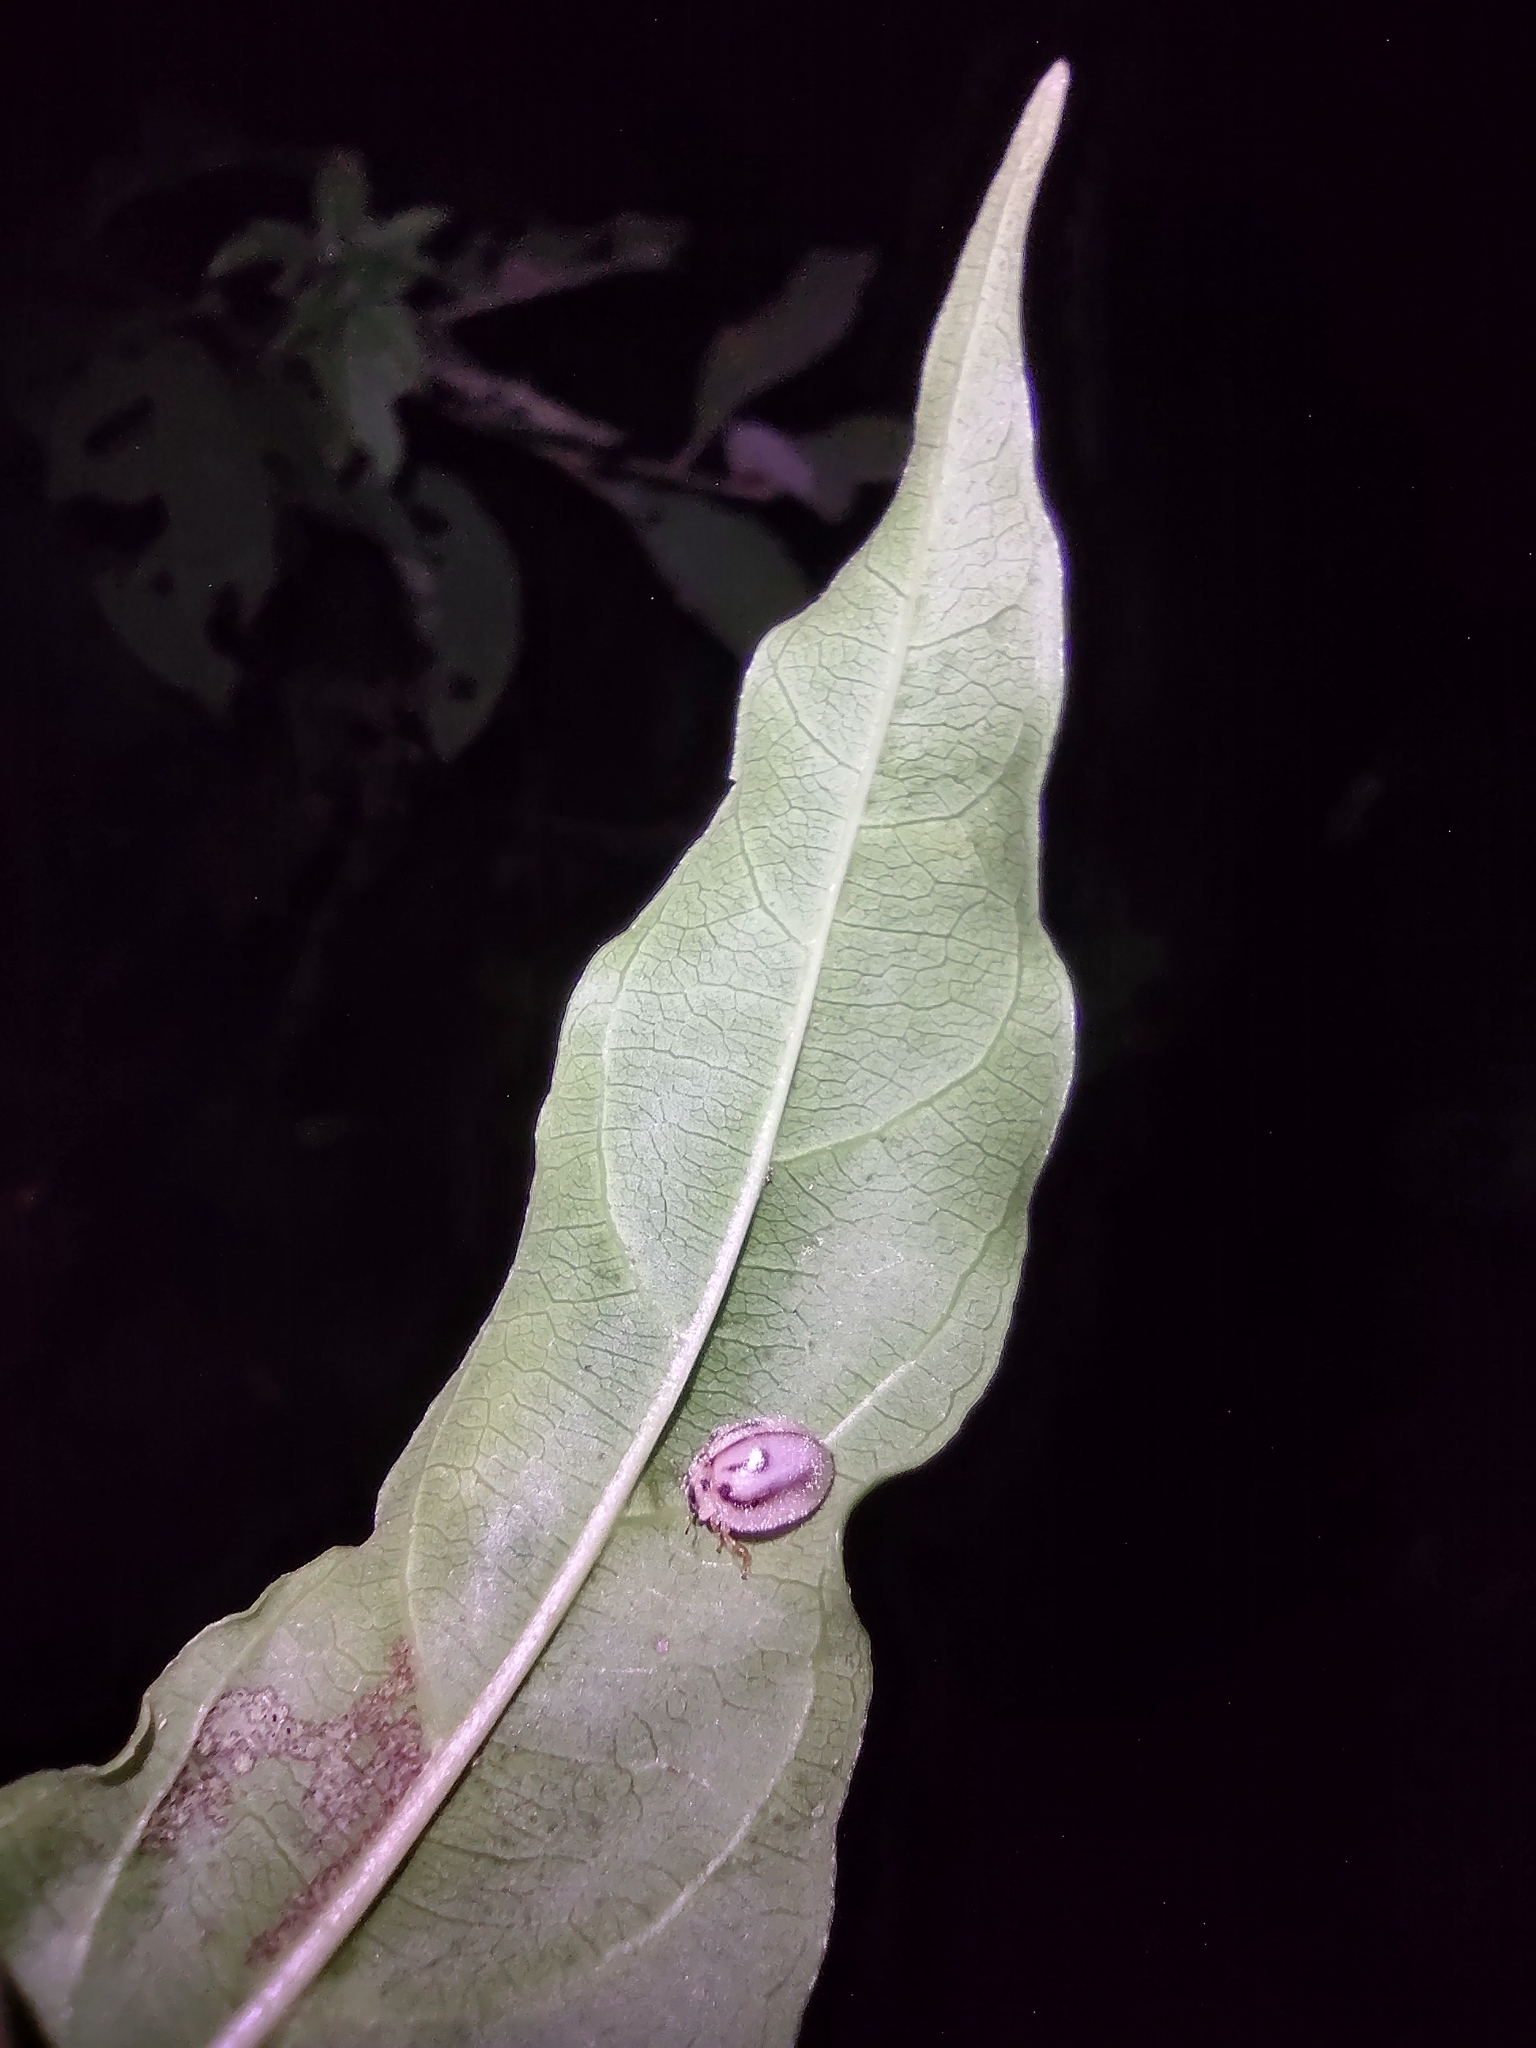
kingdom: Animalia
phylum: Arthropoda
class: Insecta
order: Coleoptera
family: Coccinellidae
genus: Mada
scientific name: Mada inepta
